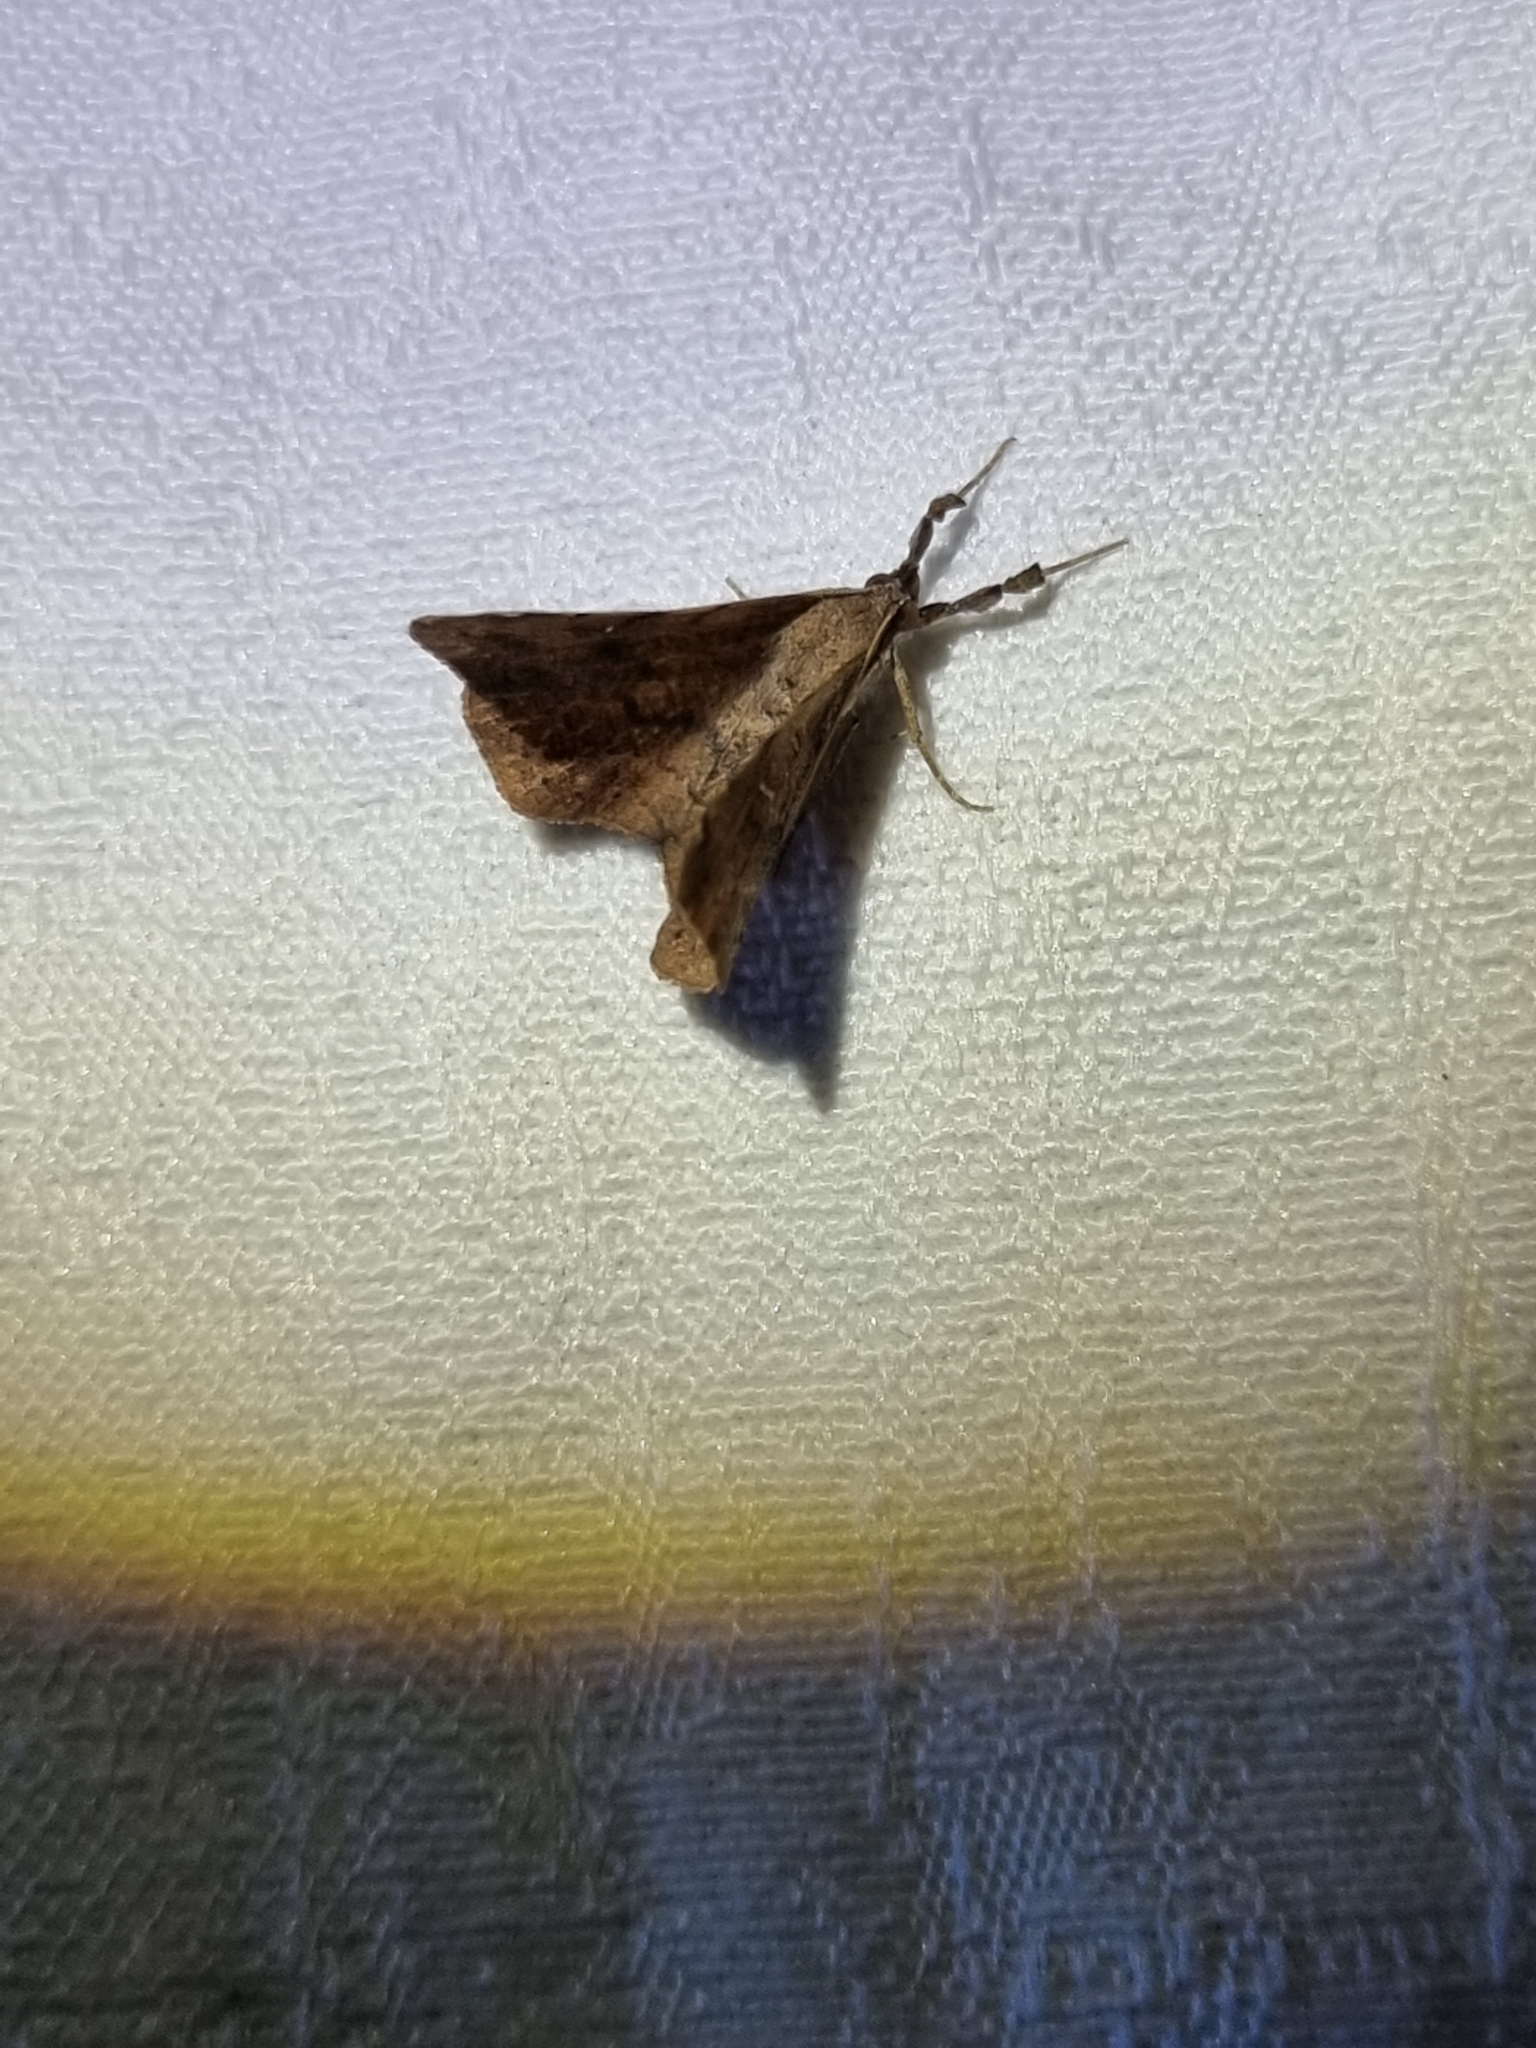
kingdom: Animalia
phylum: Arthropoda
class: Insecta
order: Lepidoptera
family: Erebidae
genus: Oxyodes
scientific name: Oxyodes scrobiculata
